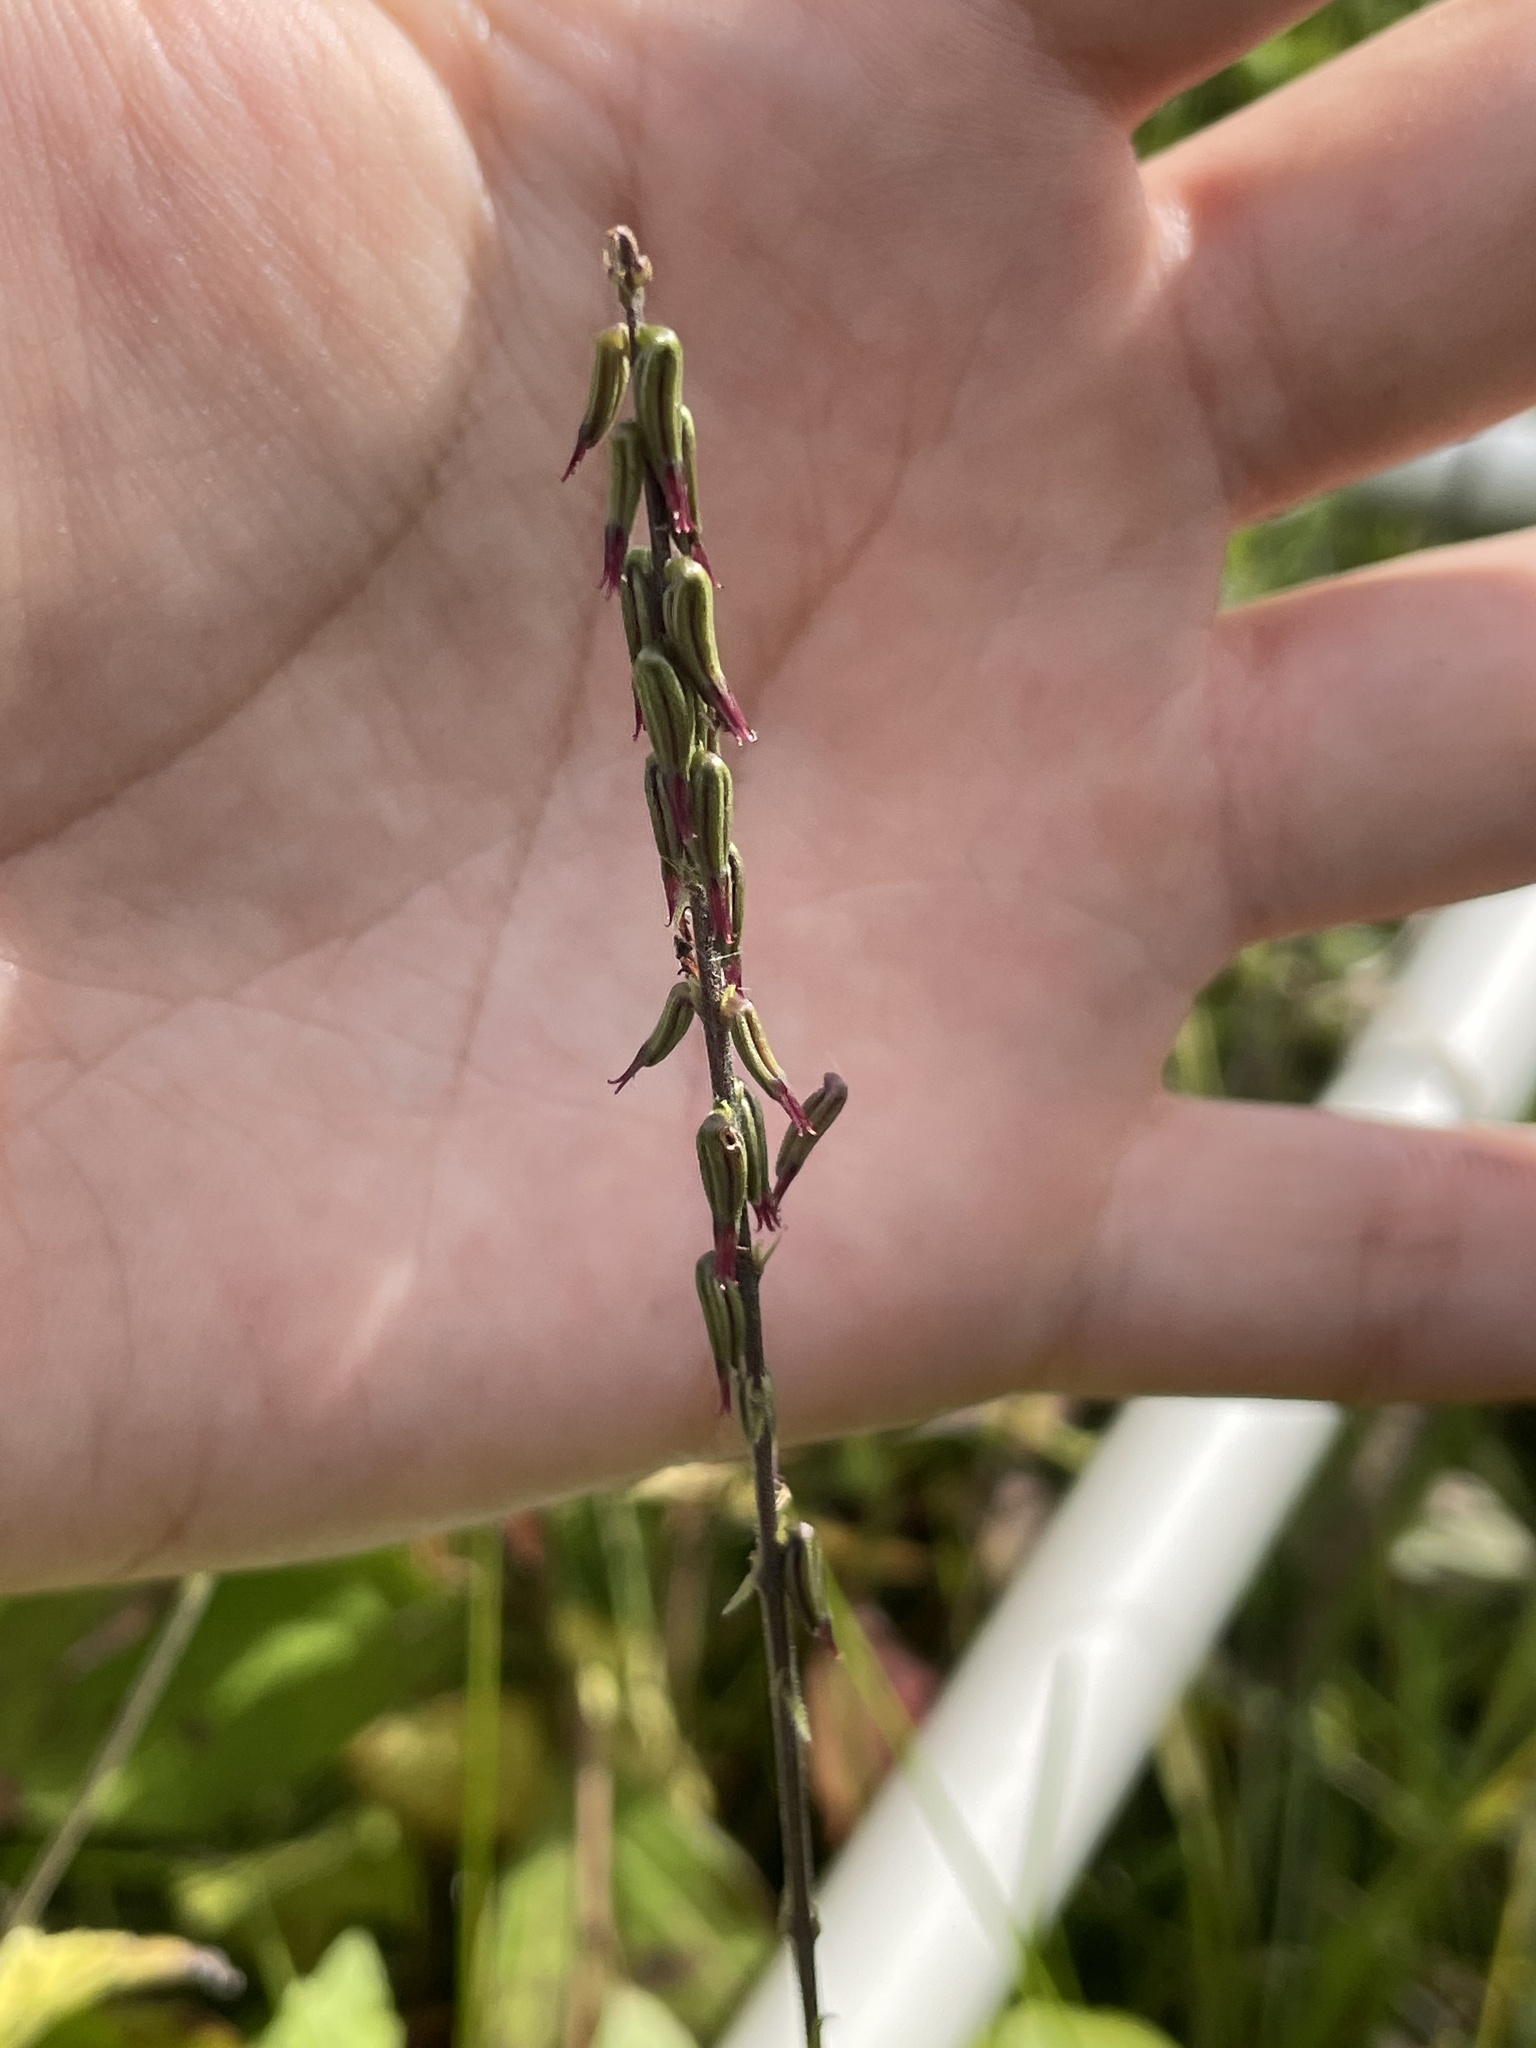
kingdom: Plantae
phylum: Tracheophyta
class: Magnoliopsida
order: Lamiales
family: Phrymaceae
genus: Phryma
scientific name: Phryma leptostachya
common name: American lopseed
